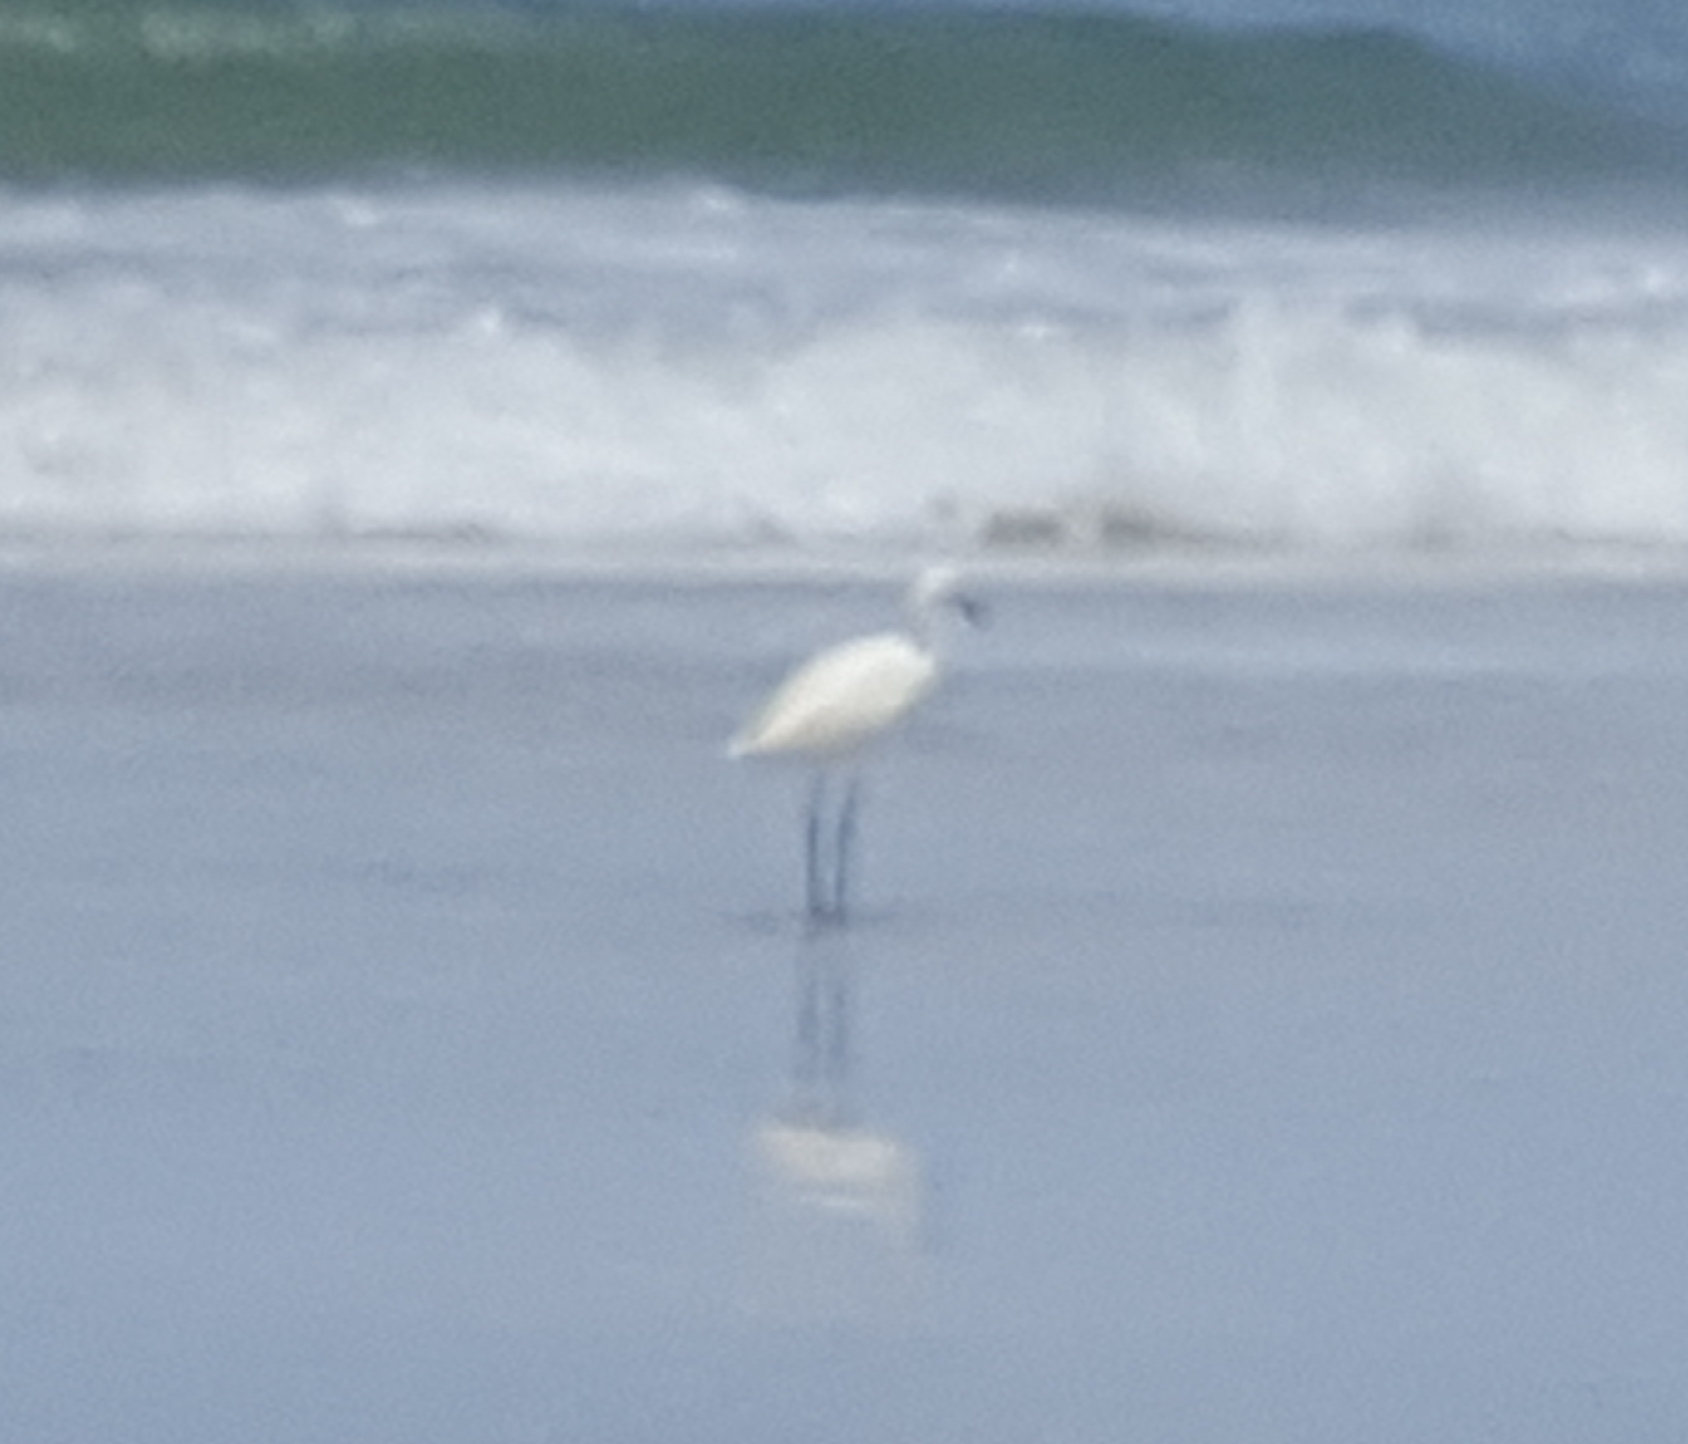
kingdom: Animalia
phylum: Chordata
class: Aves
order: Pelecaniformes
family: Ardeidae
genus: Egretta
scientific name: Egretta thula
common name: Snowy egret
